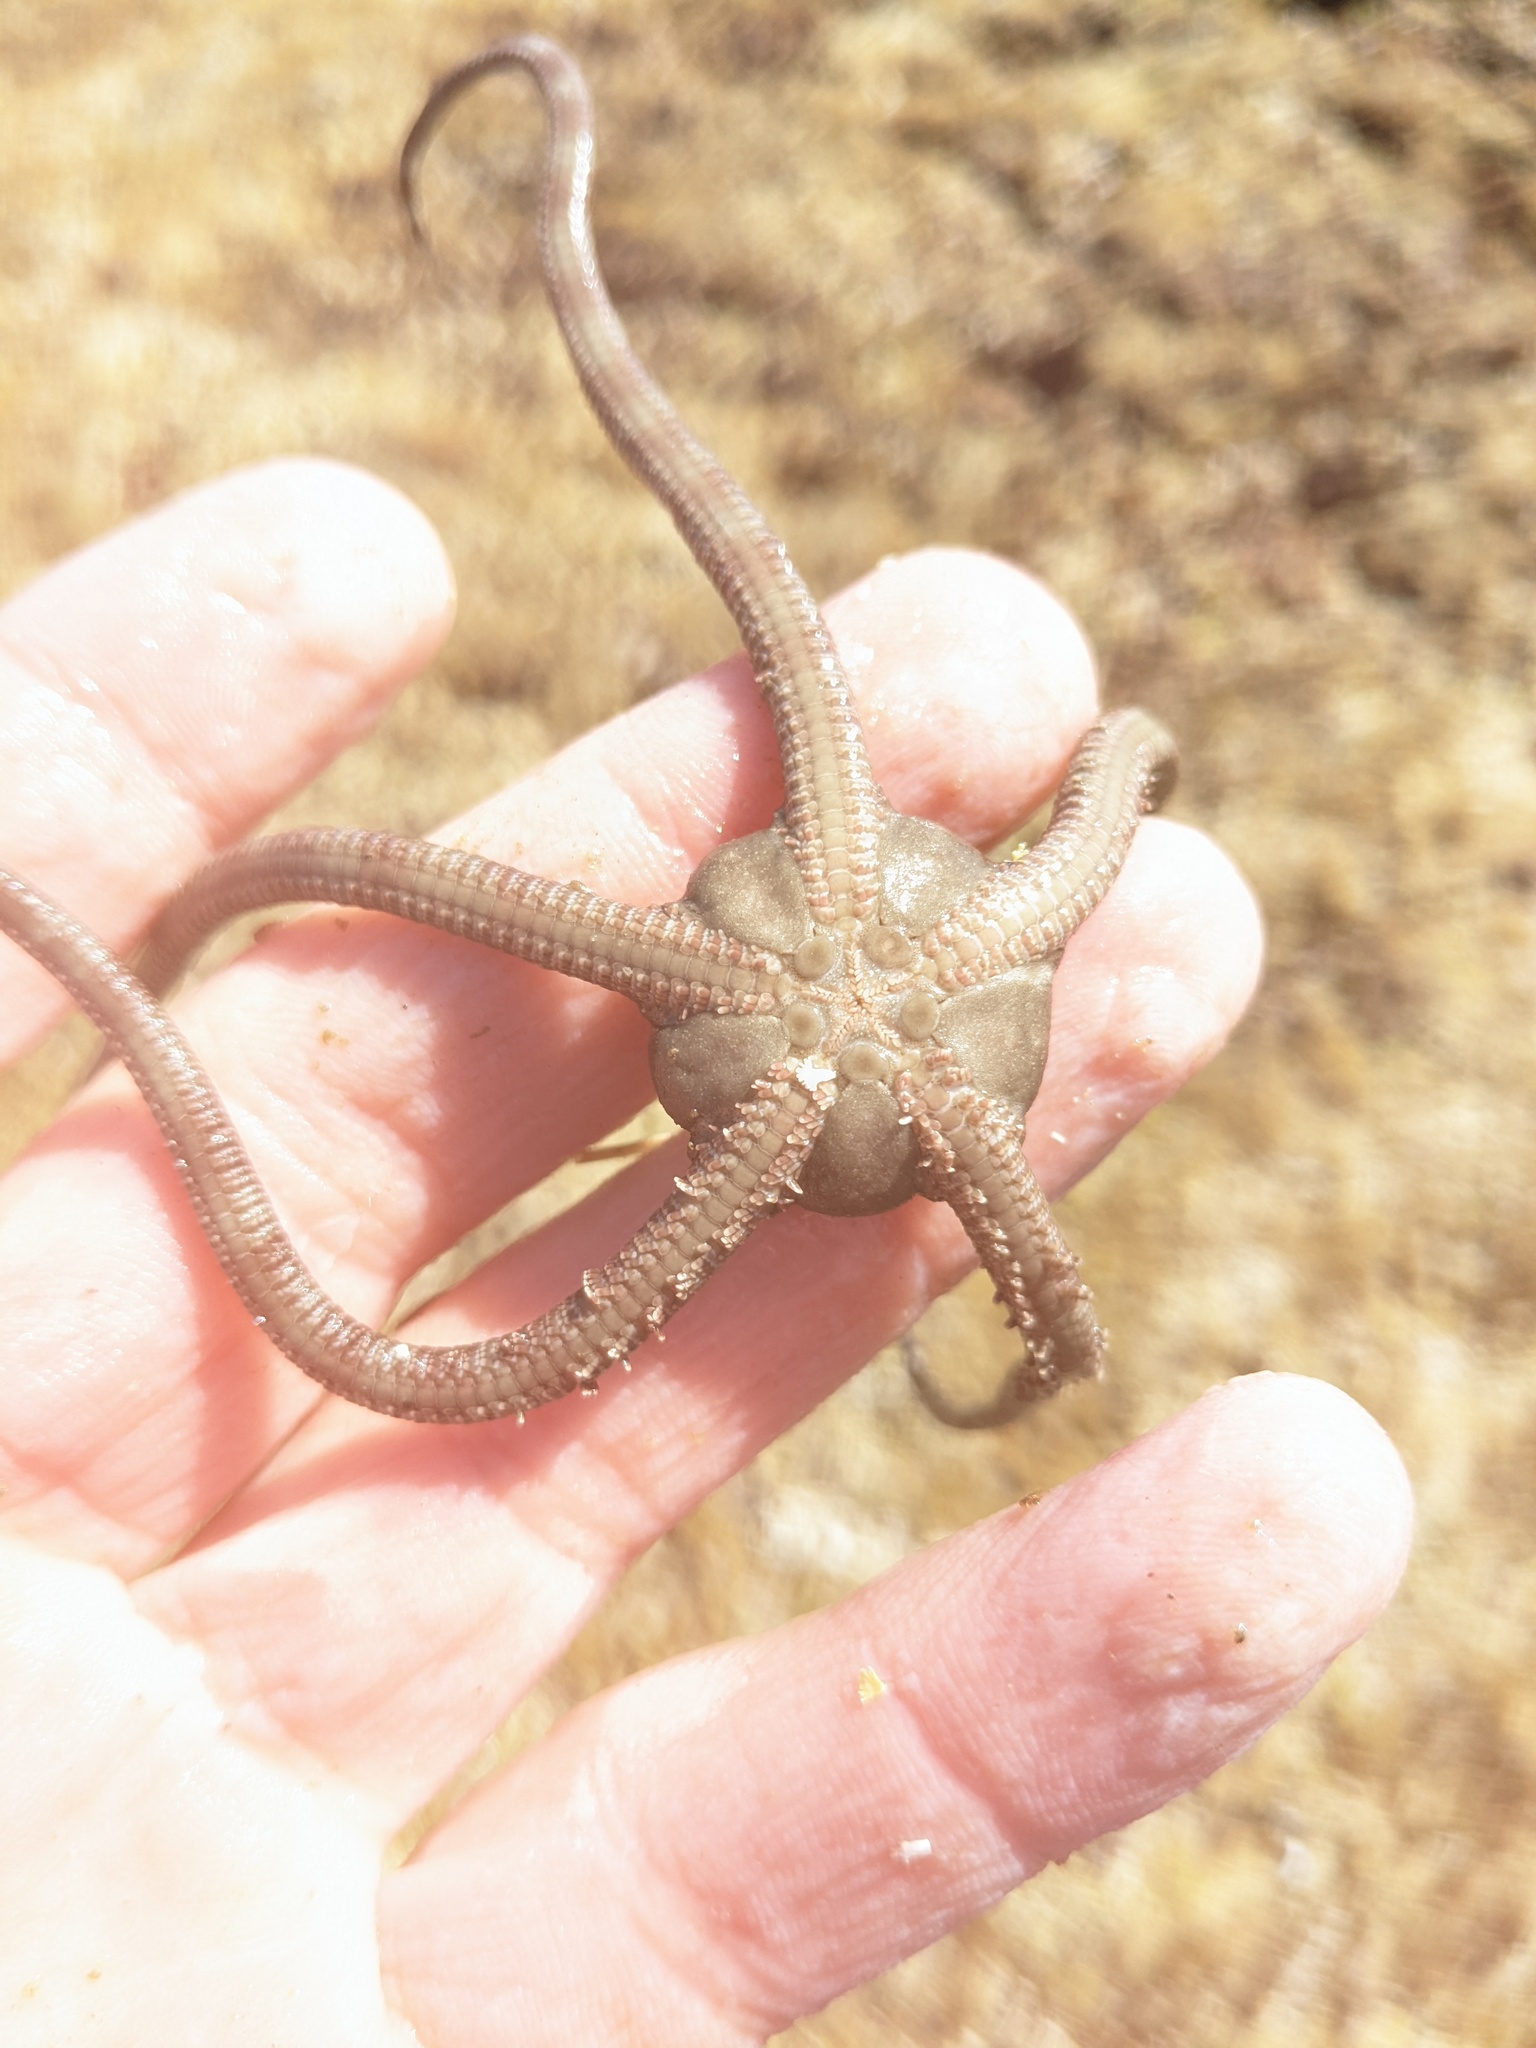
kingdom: Animalia
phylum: Echinodermata
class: Ophiuroidea
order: Ophiacanthida
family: Ophiodermatidae
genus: Ophioderma
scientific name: Ophioderma panamense
